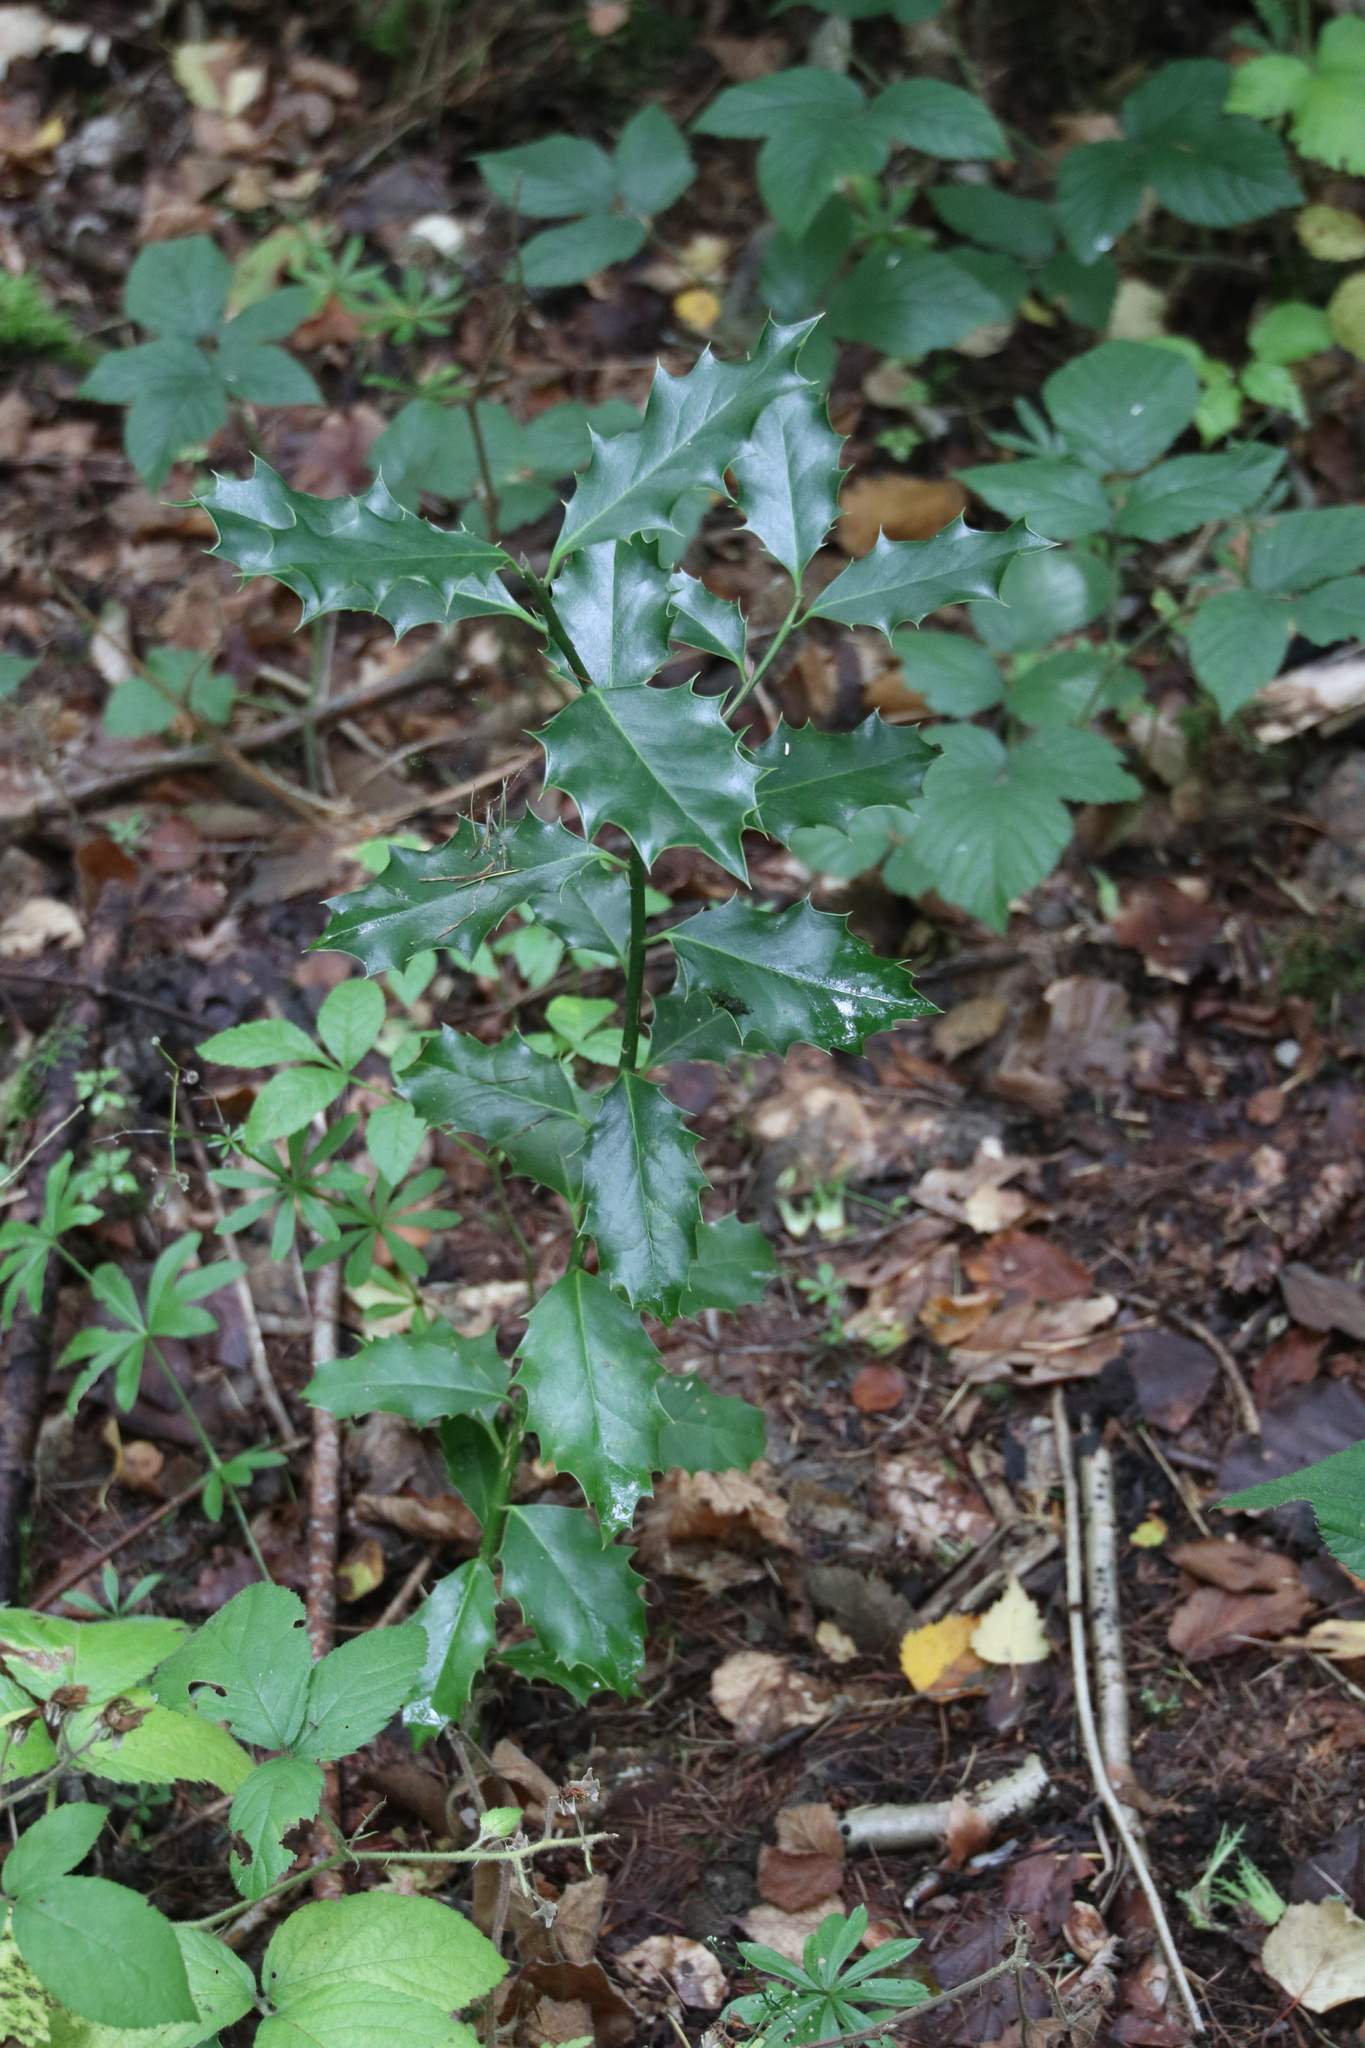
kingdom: Plantae
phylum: Tracheophyta
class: Magnoliopsida
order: Aquifoliales
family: Aquifoliaceae
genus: Ilex
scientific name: Ilex aquifolium
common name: English holly
